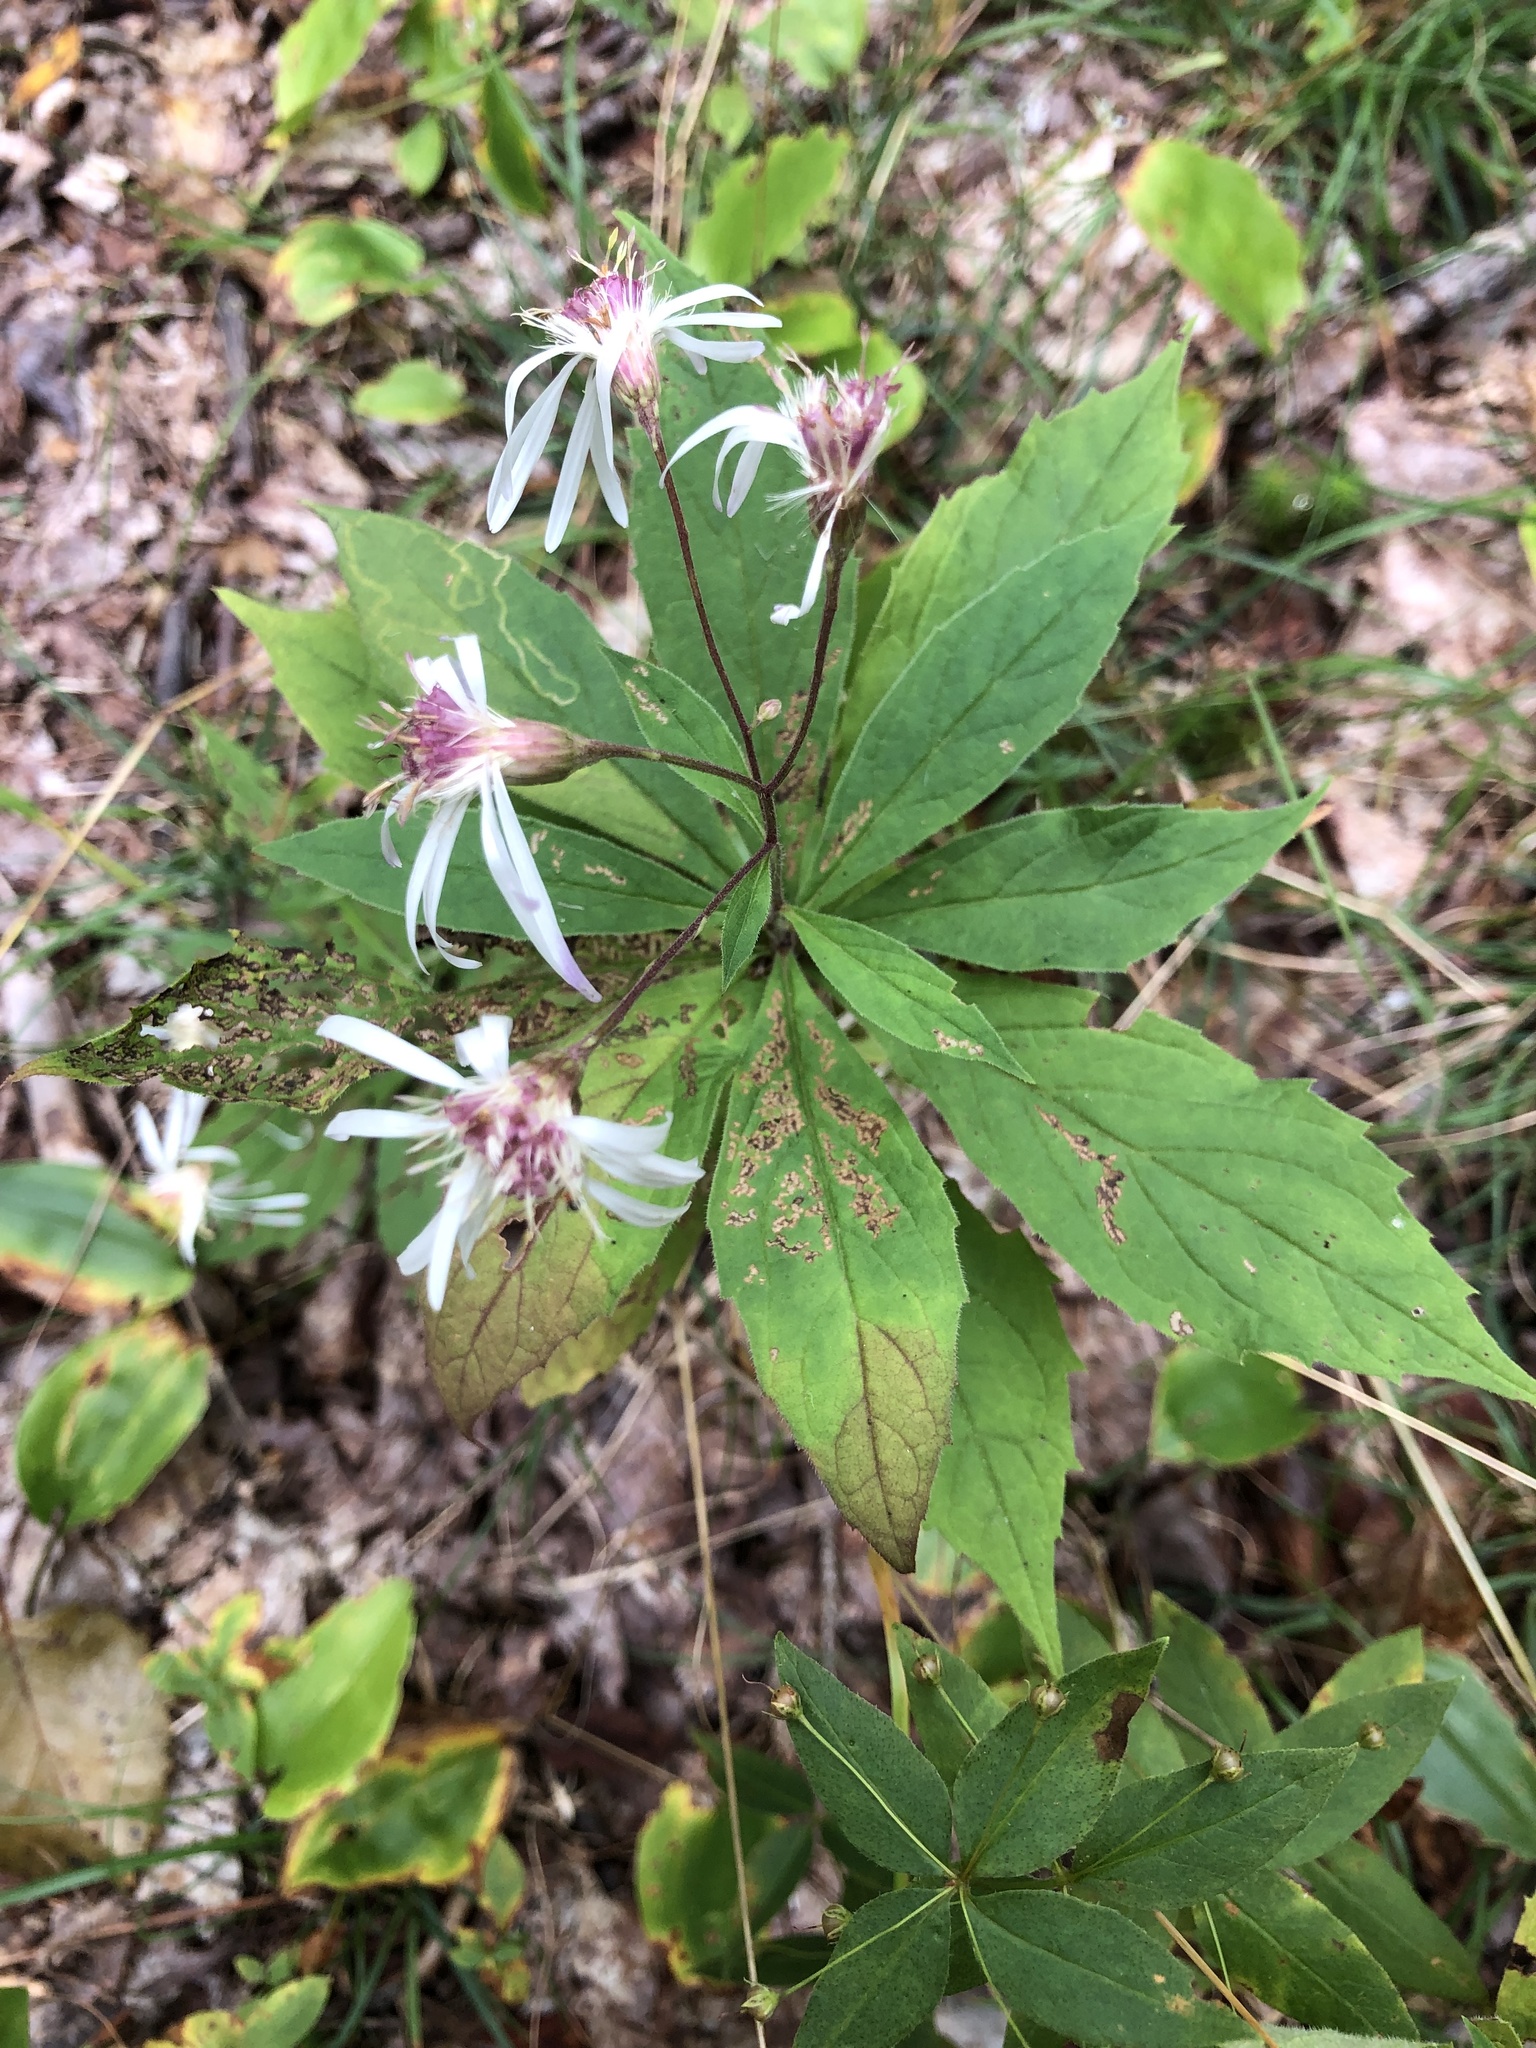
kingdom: Plantae
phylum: Tracheophyta
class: Magnoliopsida
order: Asterales
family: Asteraceae
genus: Oclemena
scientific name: Oclemena acuminata
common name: Mountain aster
